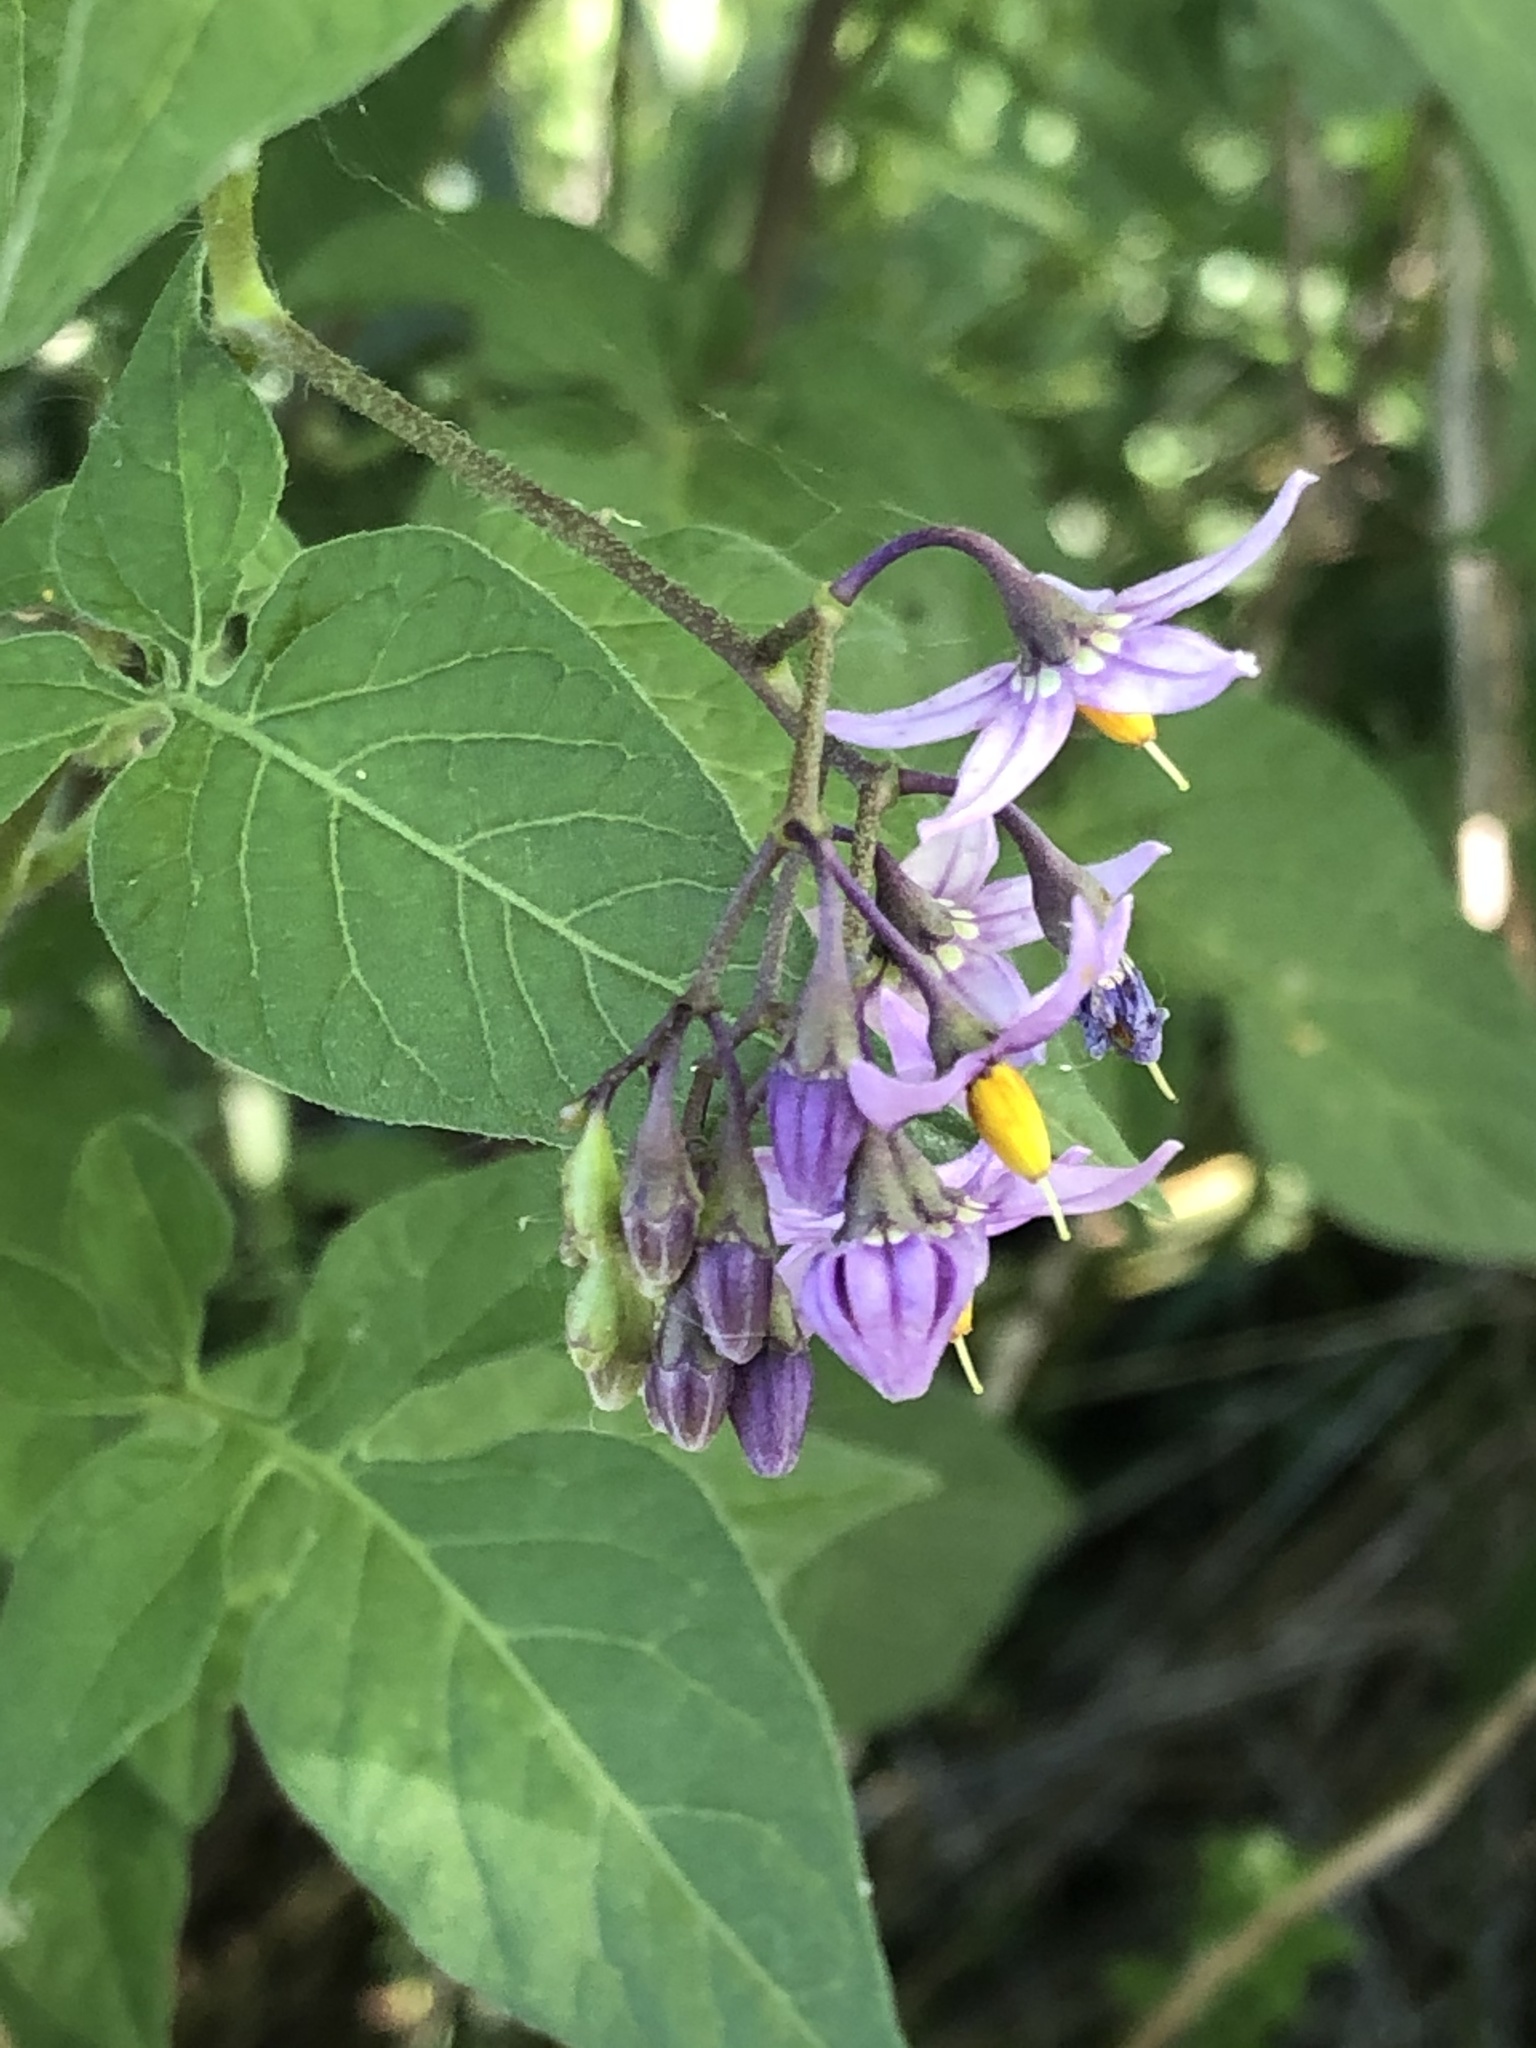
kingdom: Plantae
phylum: Tracheophyta
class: Magnoliopsida
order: Solanales
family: Solanaceae
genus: Solanum
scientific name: Solanum dulcamara
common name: Climbing nightshade
